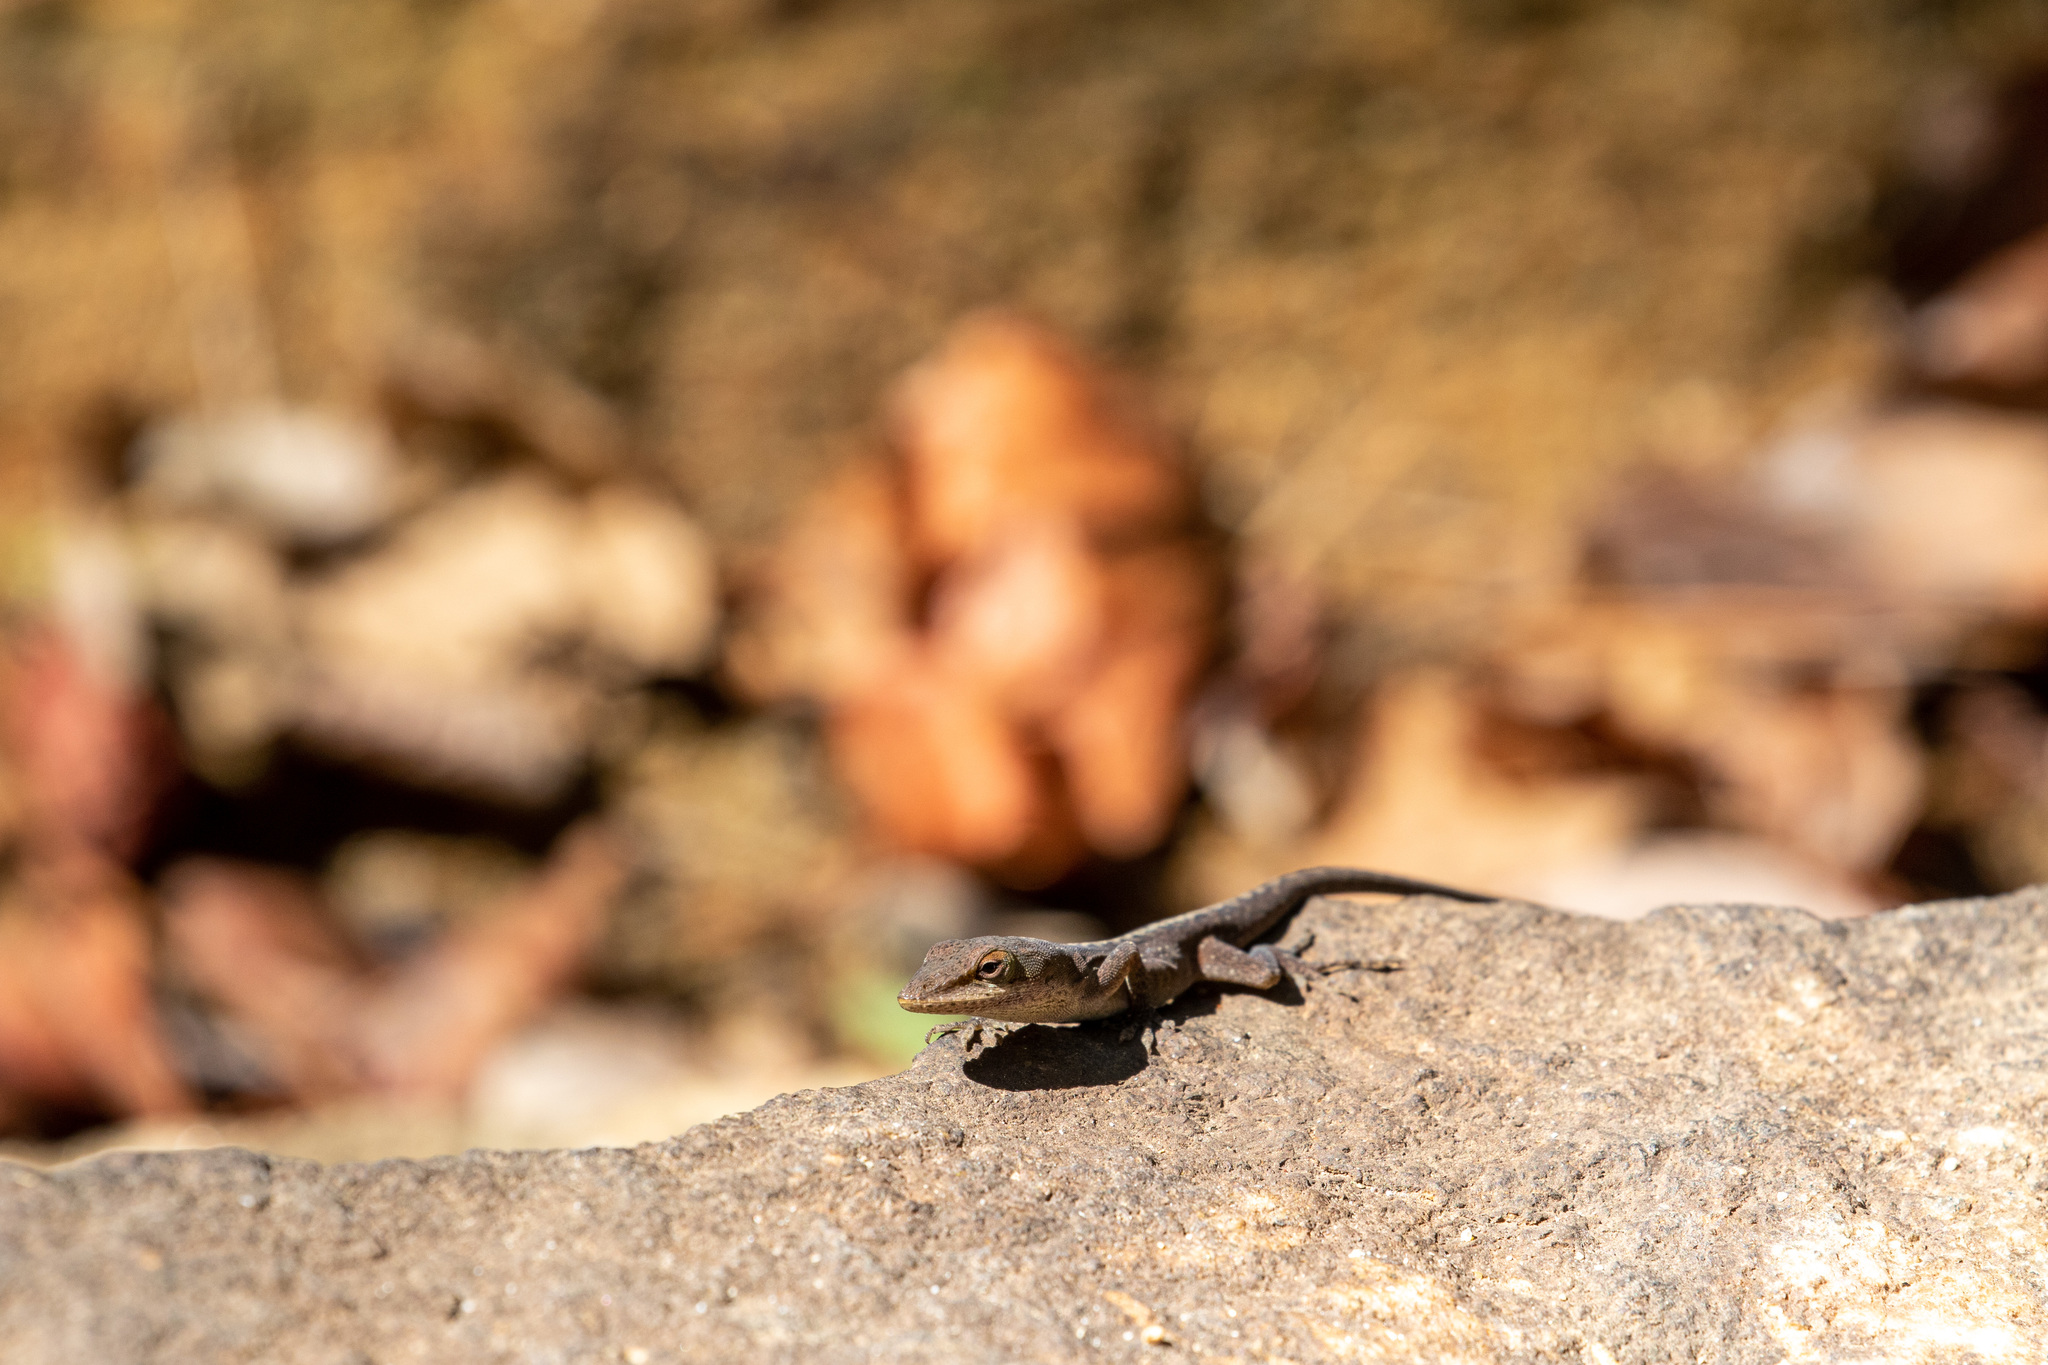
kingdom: Animalia
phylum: Chordata
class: Squamata
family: Dactyloidae
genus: Anolis
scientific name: Anolis carolinensis
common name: Green anole
